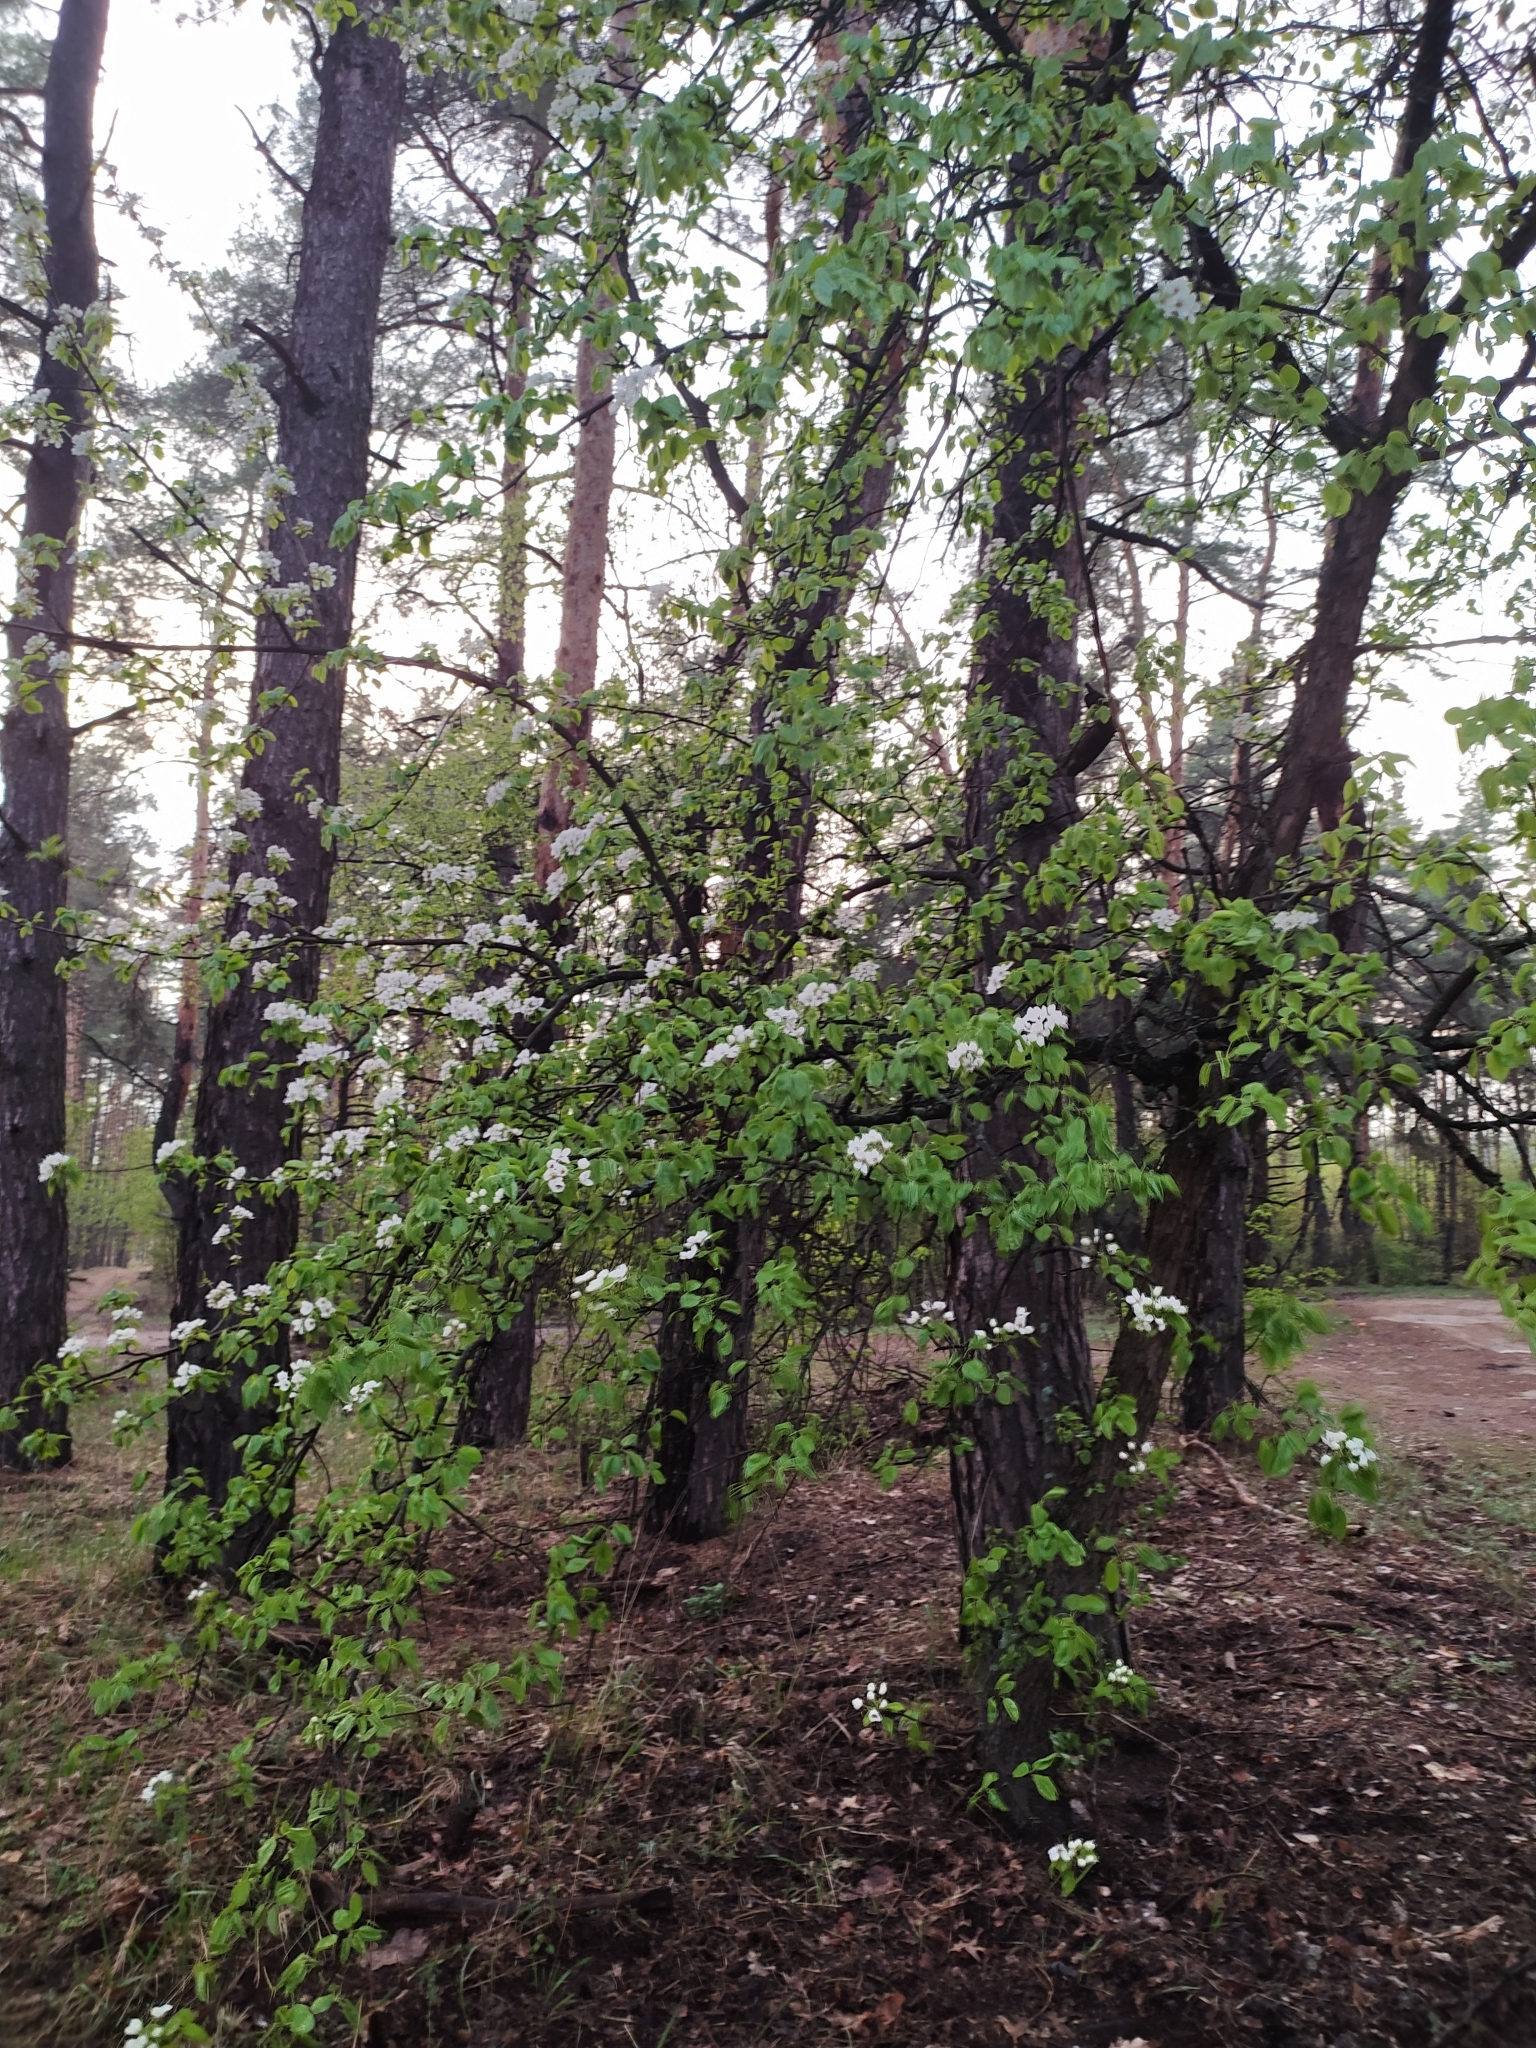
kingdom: Plantae
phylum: Tracheophyta
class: Magnoliopsida
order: Rosales
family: Rosaceae
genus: Pyrus
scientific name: Pyrus communis
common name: Pear
